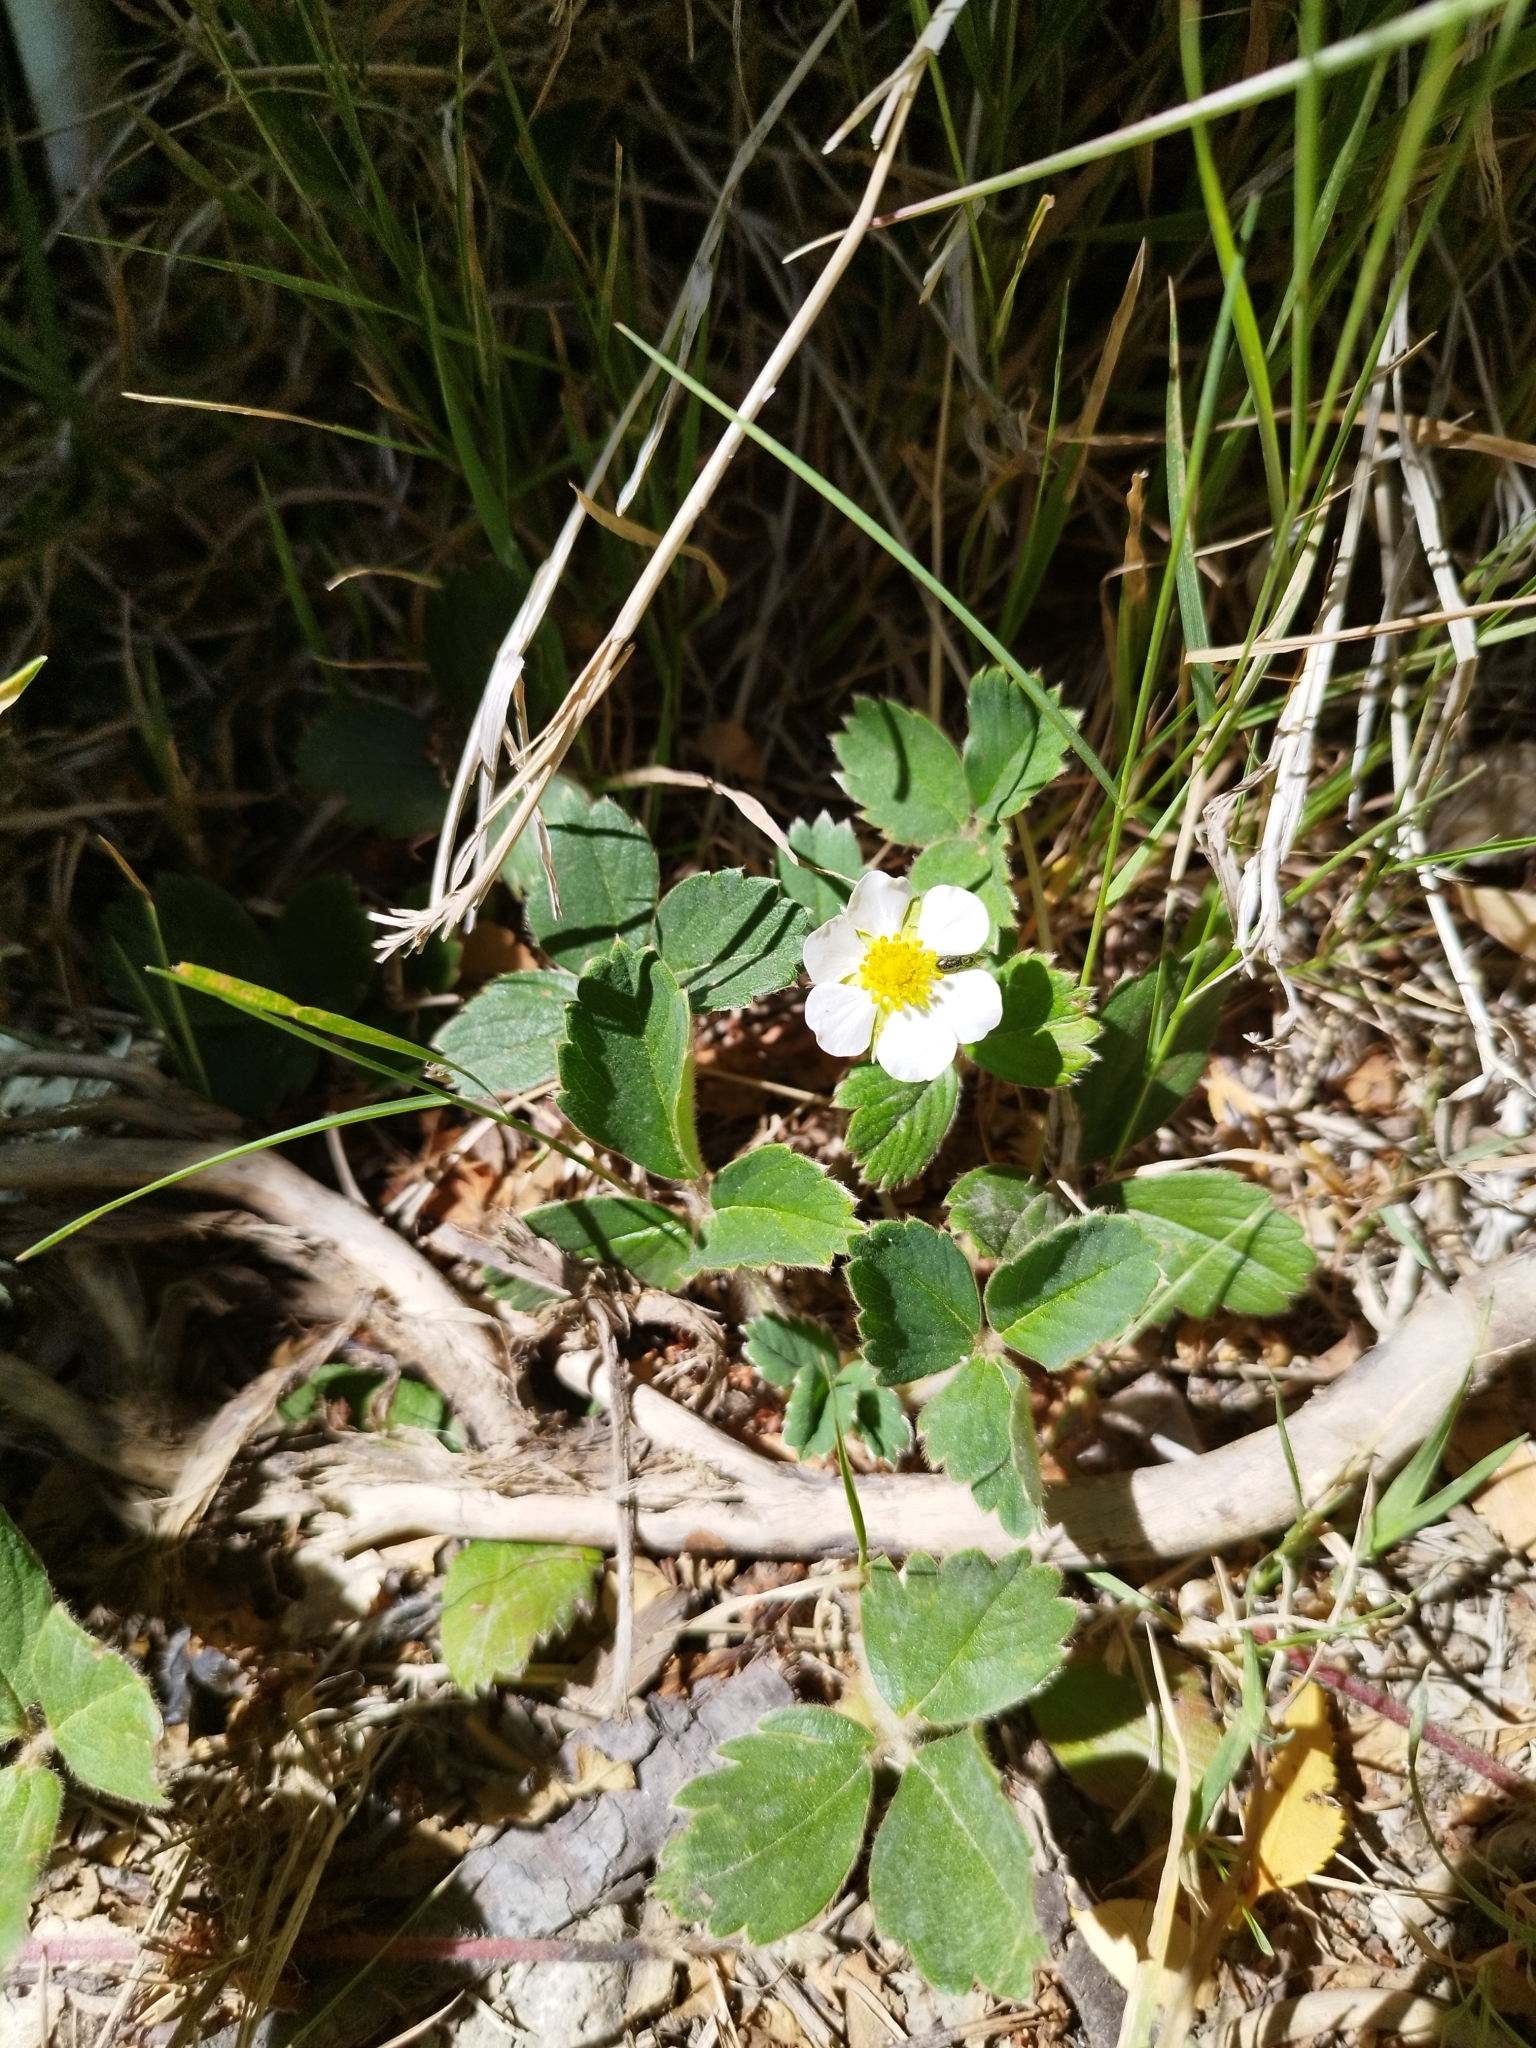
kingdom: Plantae
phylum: Tracheophyta
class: Magnoliopsida
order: Rosales
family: Rosaceae
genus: Fragaria
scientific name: Fragaria chiloensis
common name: Beach strawberry
